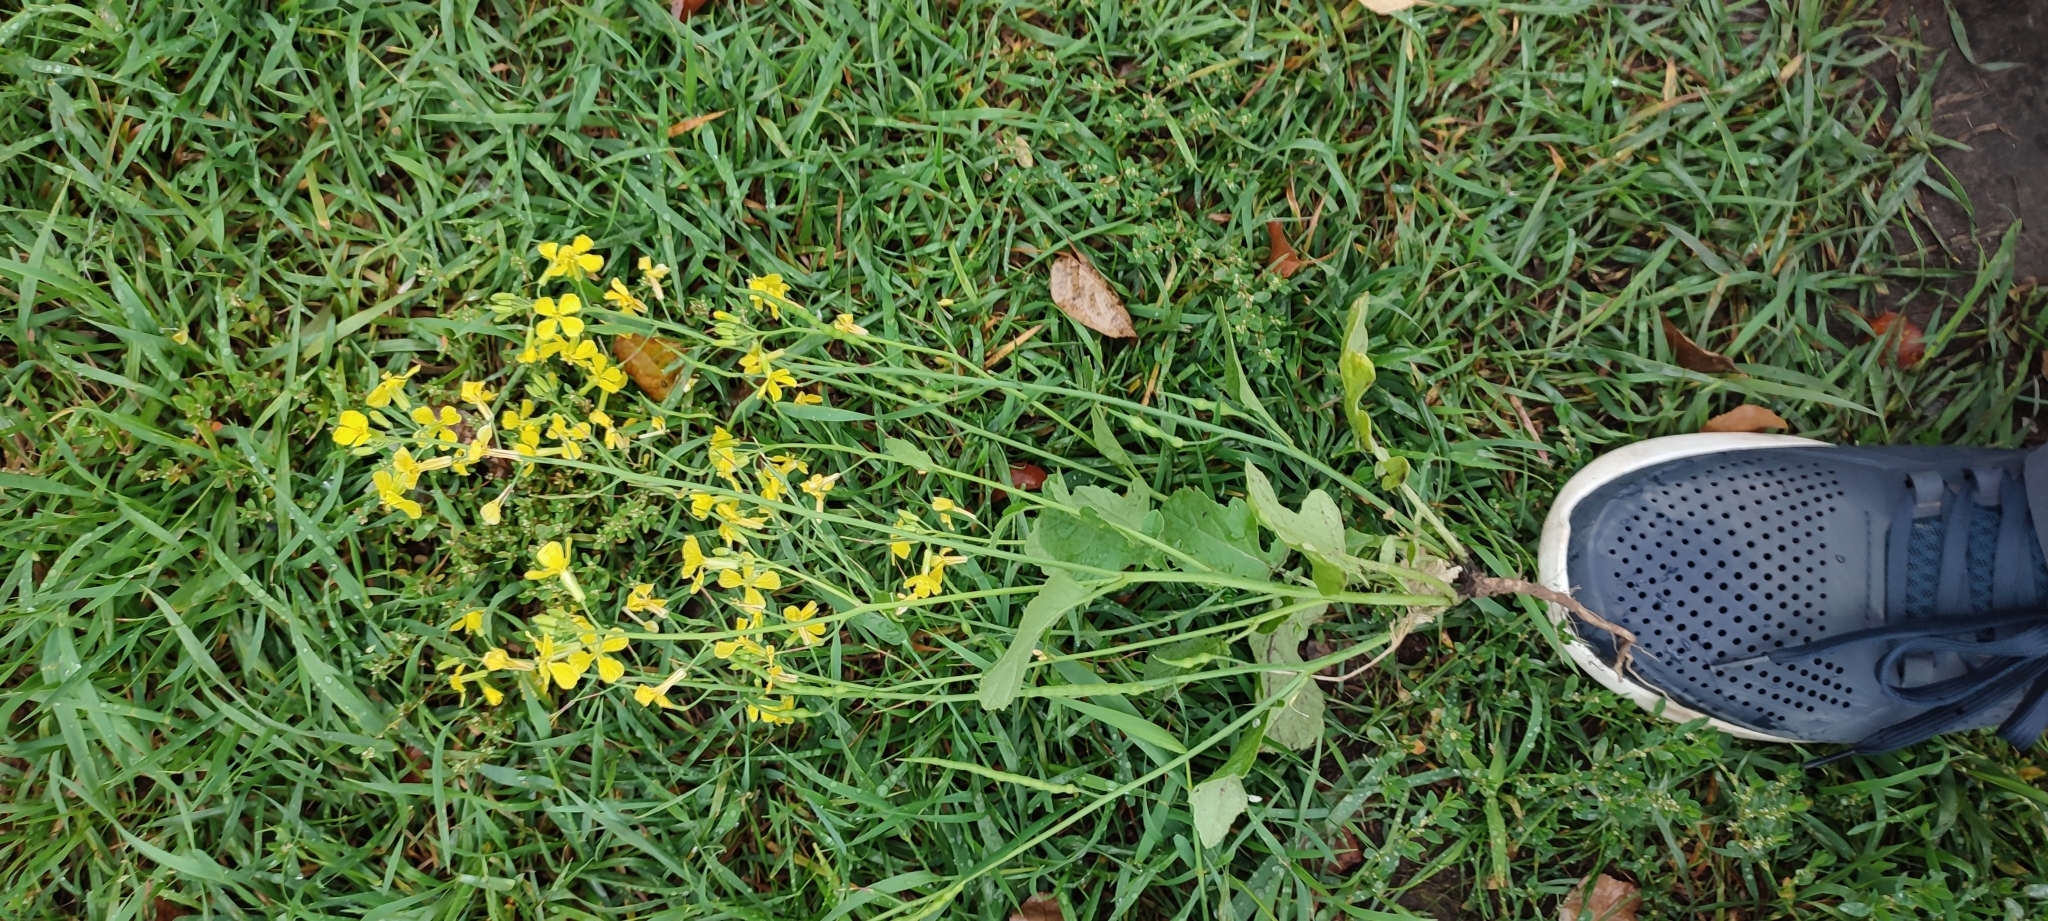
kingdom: Plantae
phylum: Tracheophyta
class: Magnoliopsida
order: Brassicales
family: Brassicaceae
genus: Raphanus
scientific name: Raphanus raphanistrum
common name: Wild radish
